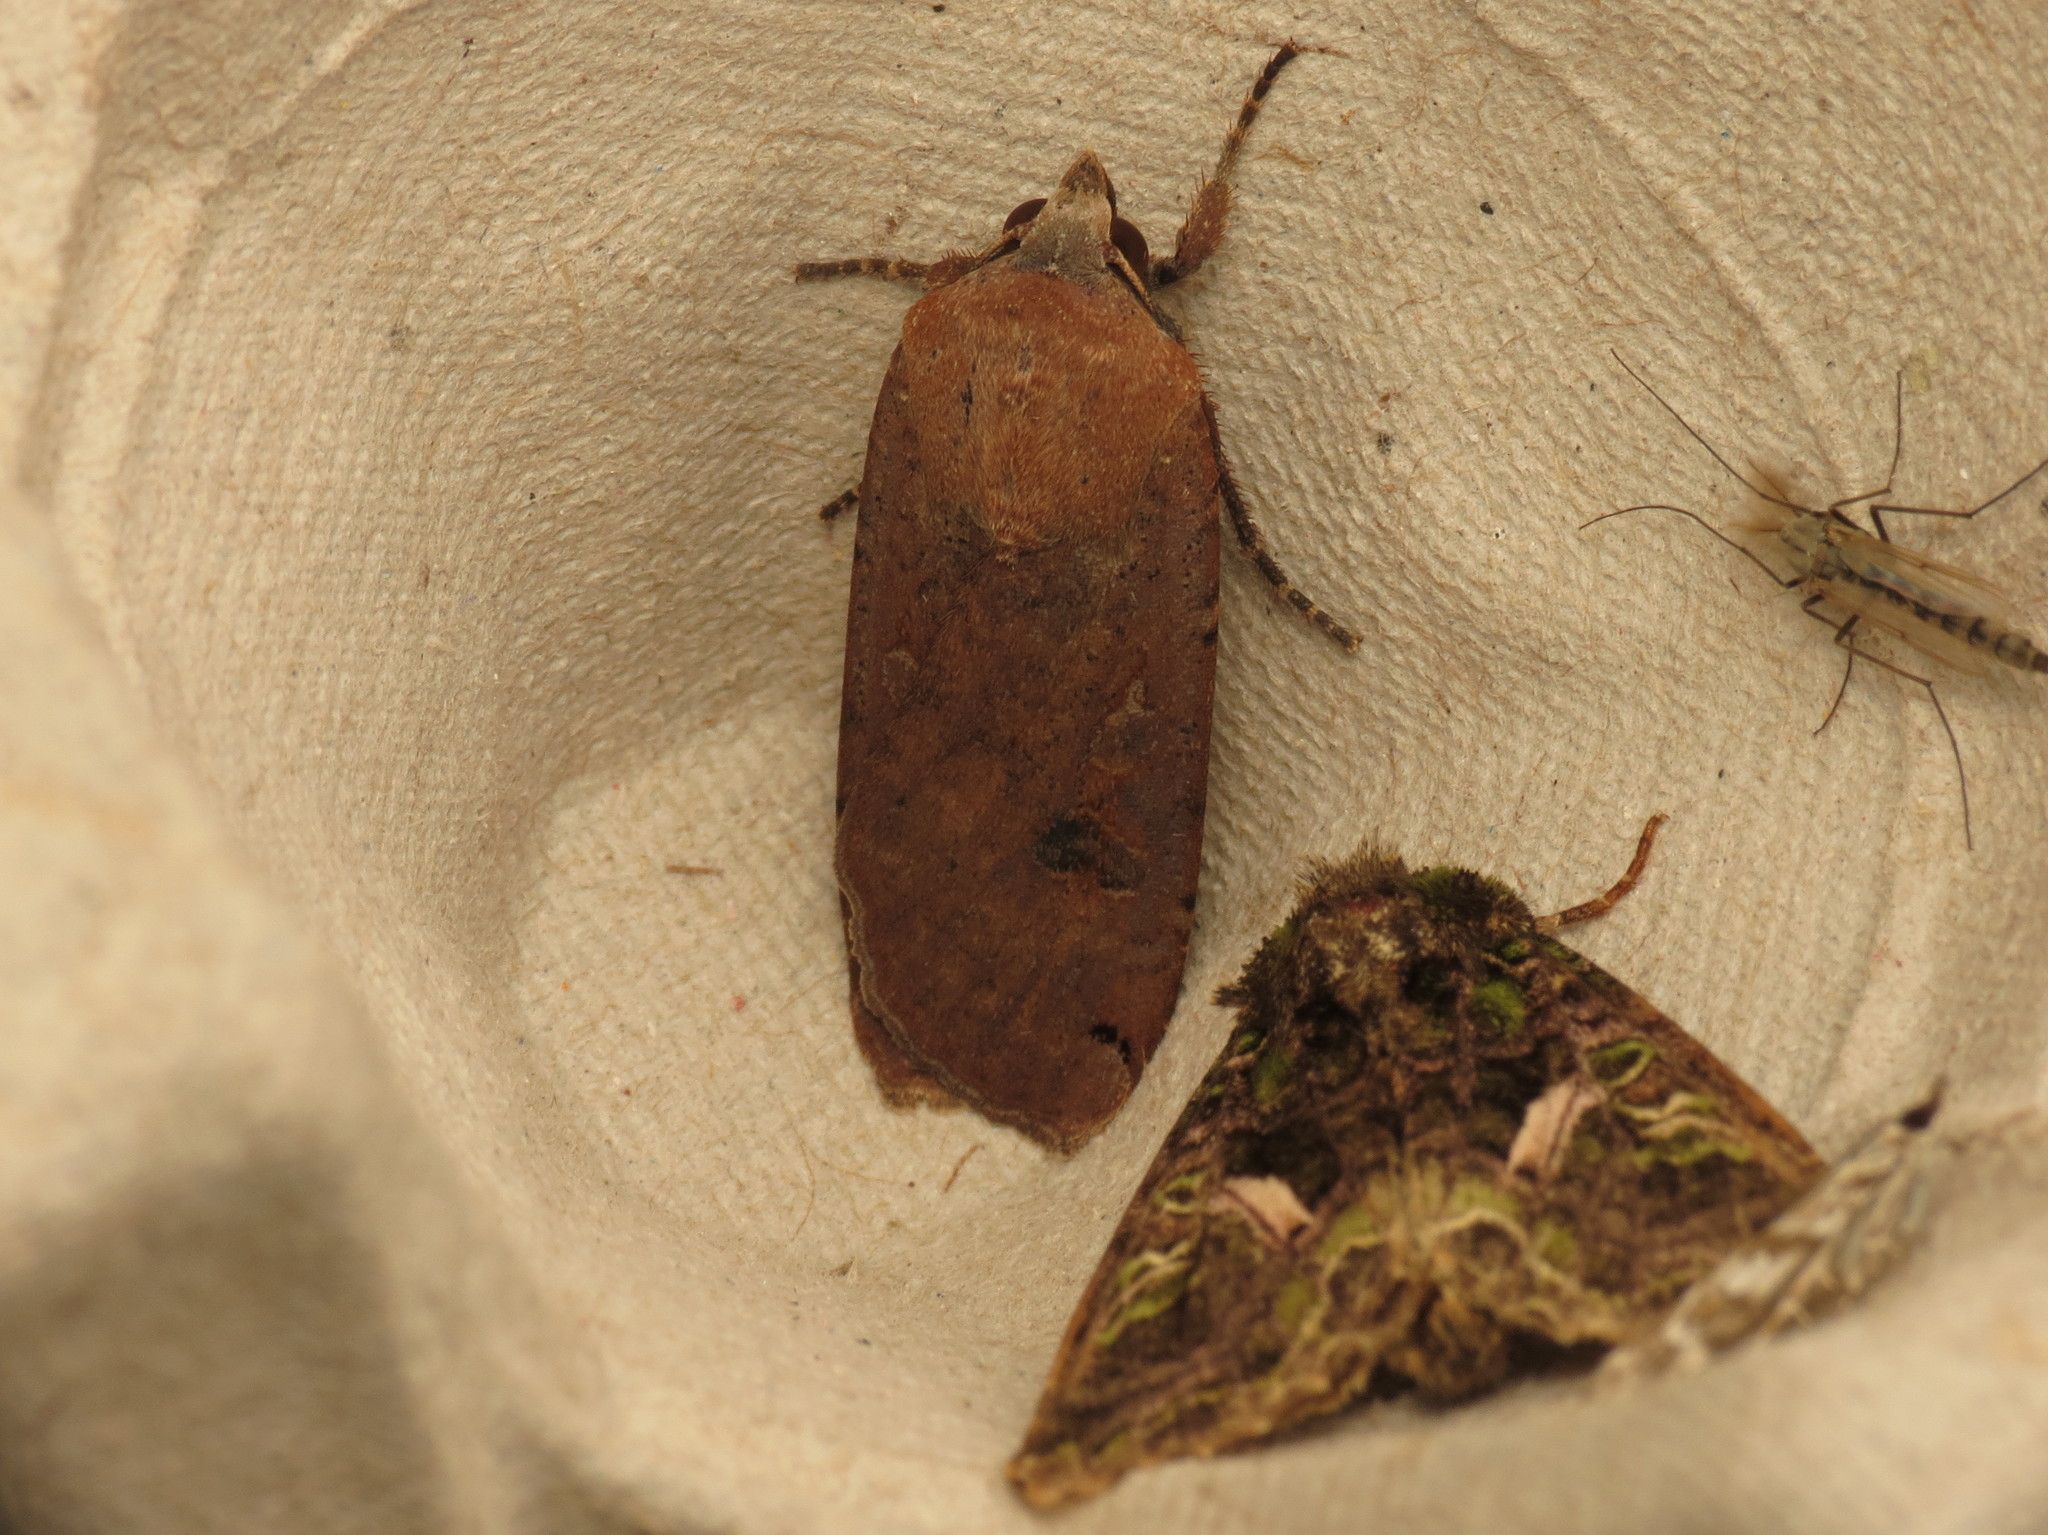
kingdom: Animalia
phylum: Arthropoda
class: Insecta
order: Lepidoptera
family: Noctuidae
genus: Noctua
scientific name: Noctua pronuba
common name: Large yellow underwing
